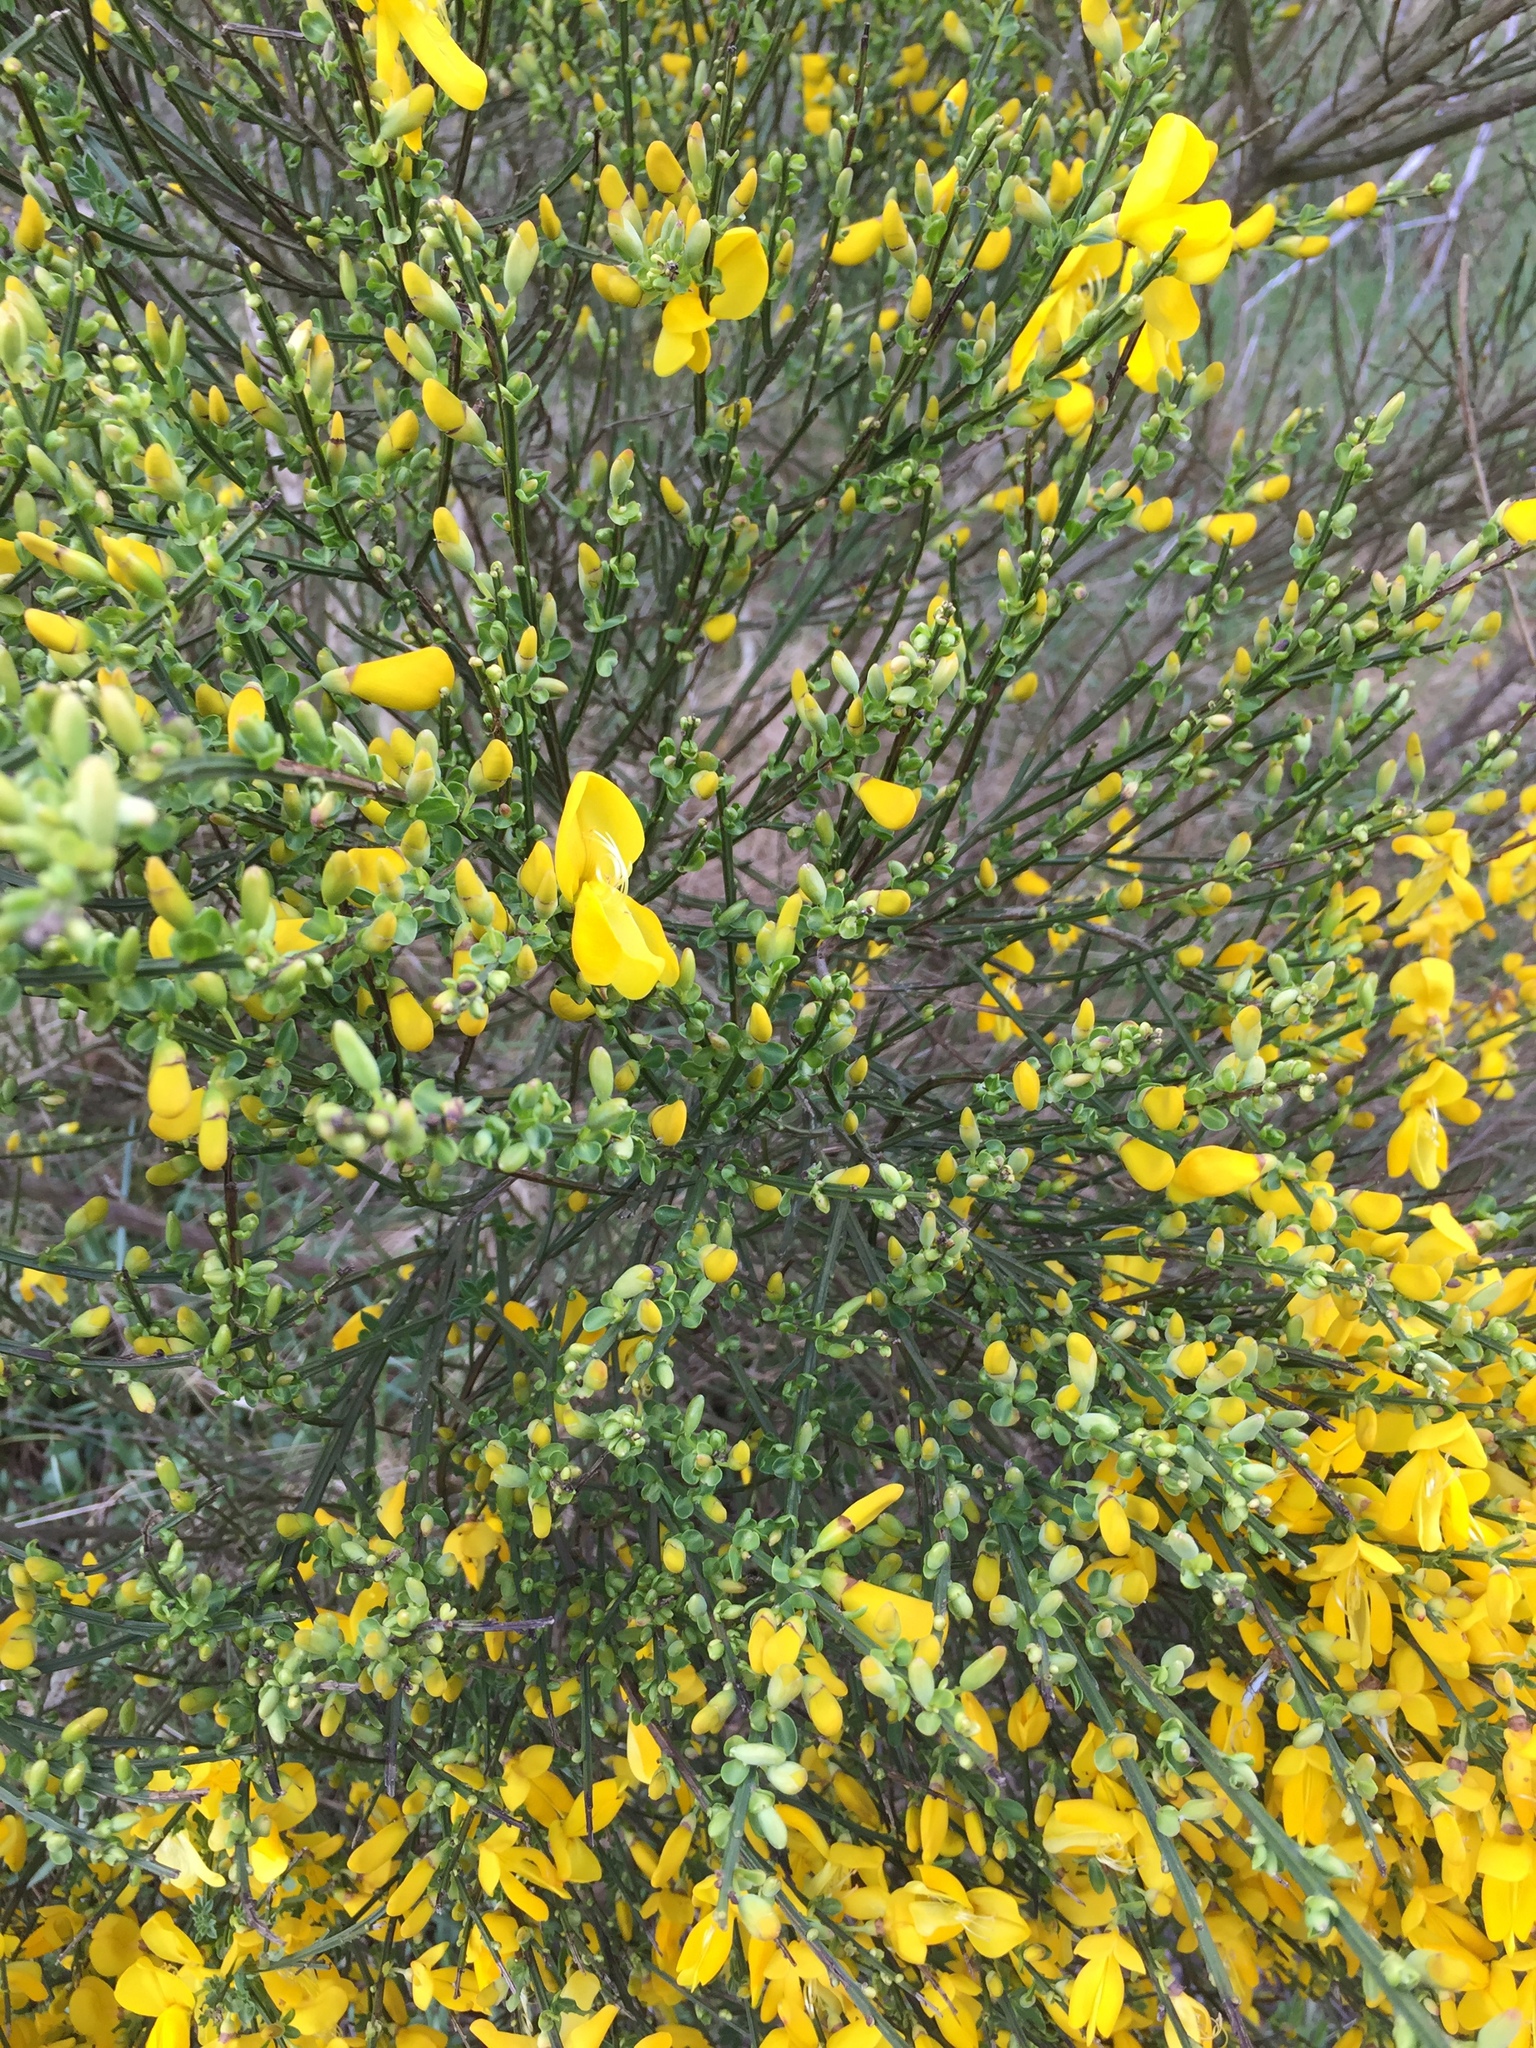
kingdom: Plantae
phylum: Tracheophyta
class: Magnoliopsida
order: Fabales
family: Fabaceae
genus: Cytisus
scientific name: Cytisus scoparius
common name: Scotch broom
